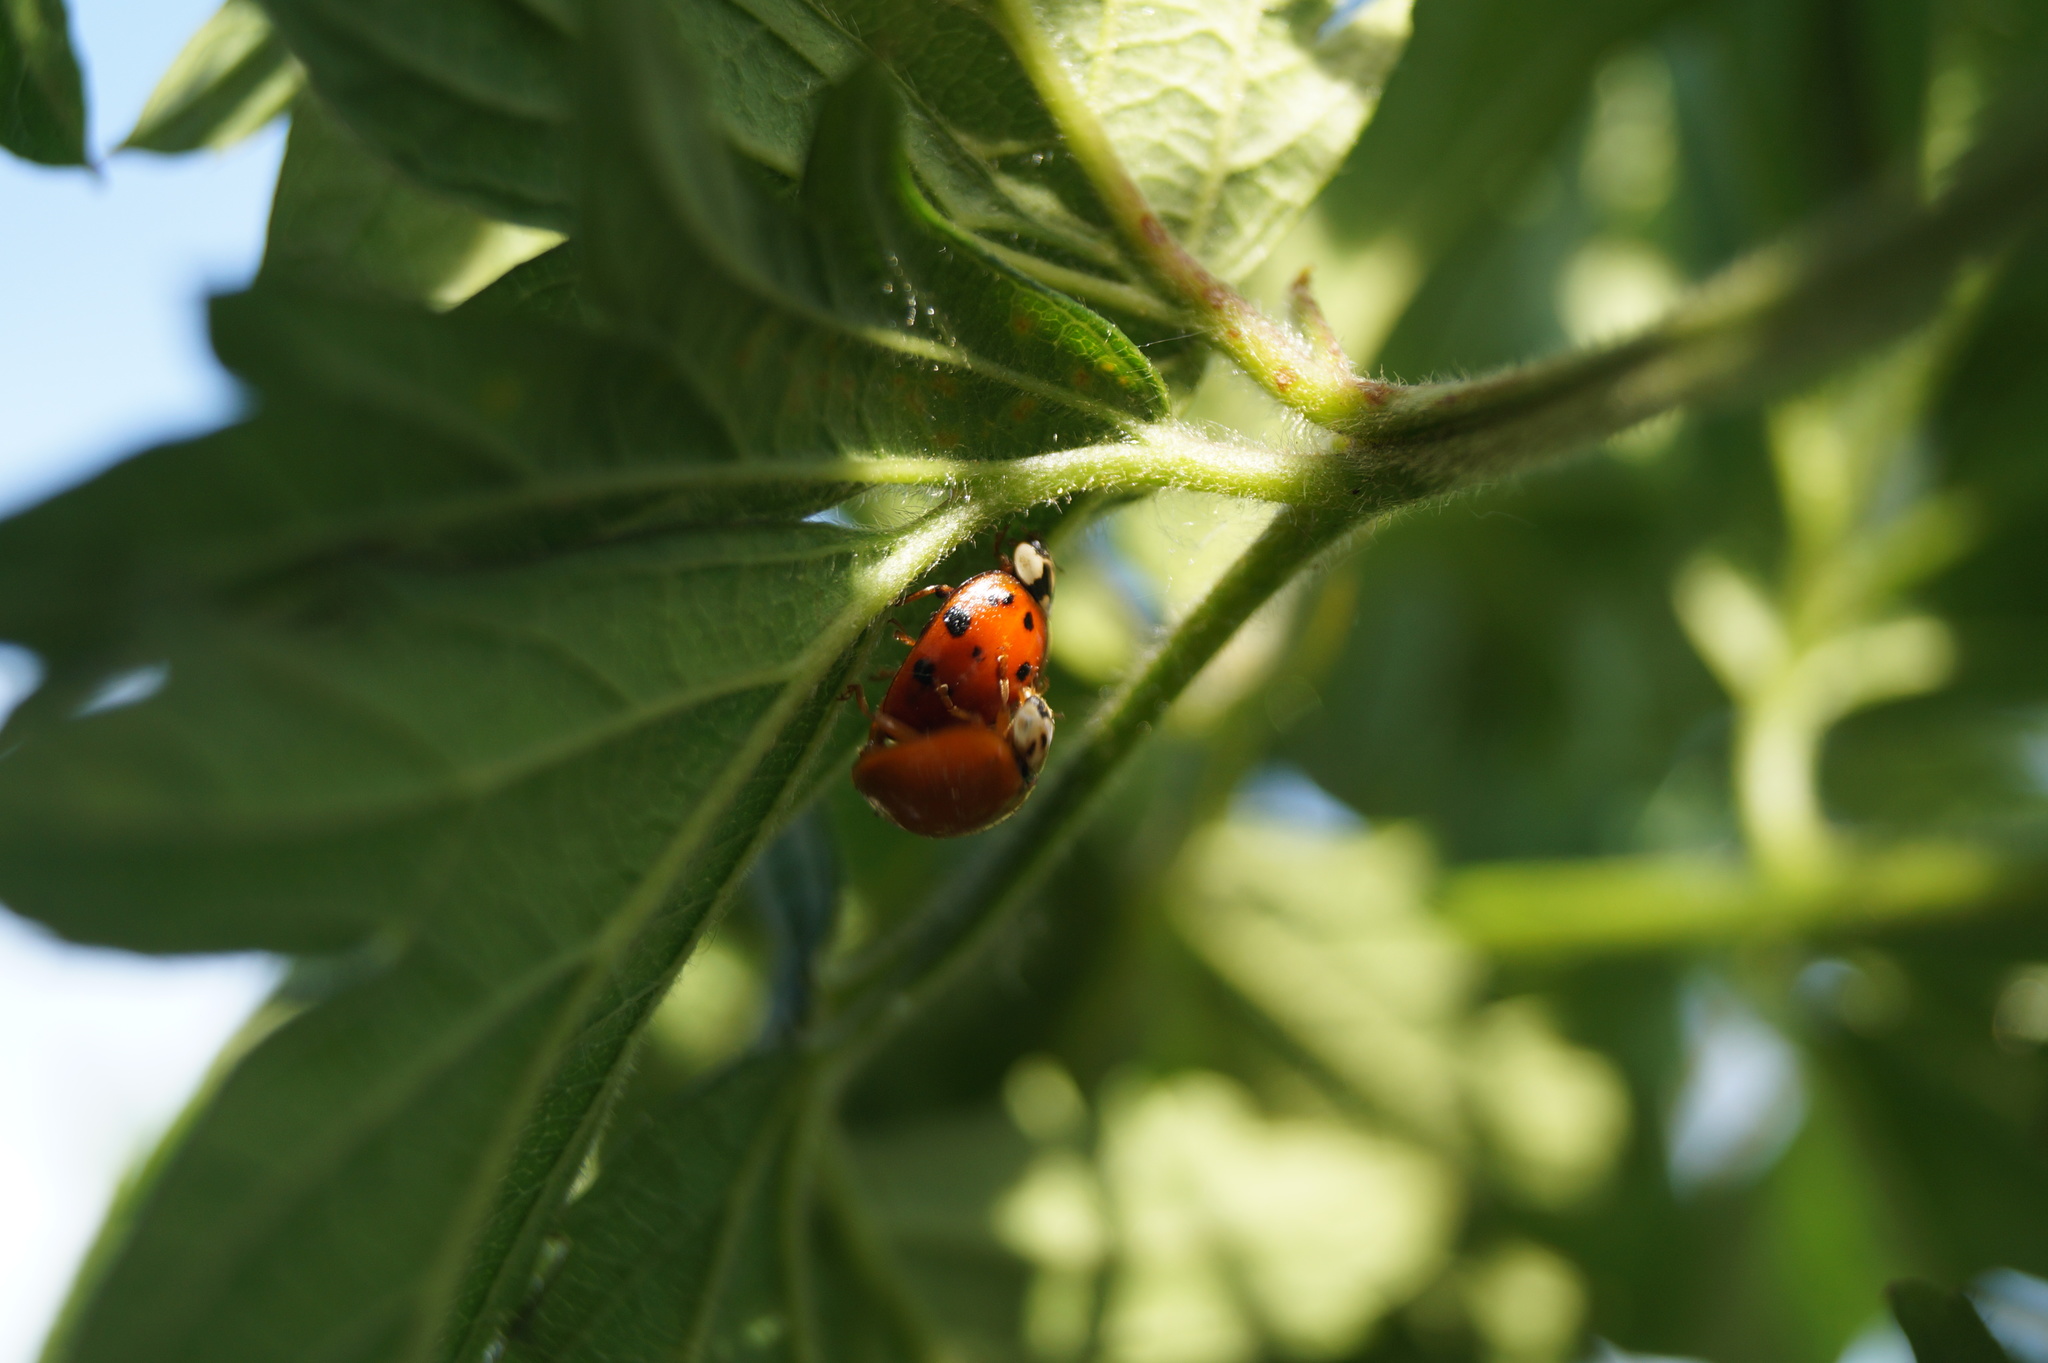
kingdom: Animalia
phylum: Arthropoda
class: Insecta
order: Coleoptera
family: Coccinellidae
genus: Harmonia
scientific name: Harmonia axyridis
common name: Harlequin ladybird
